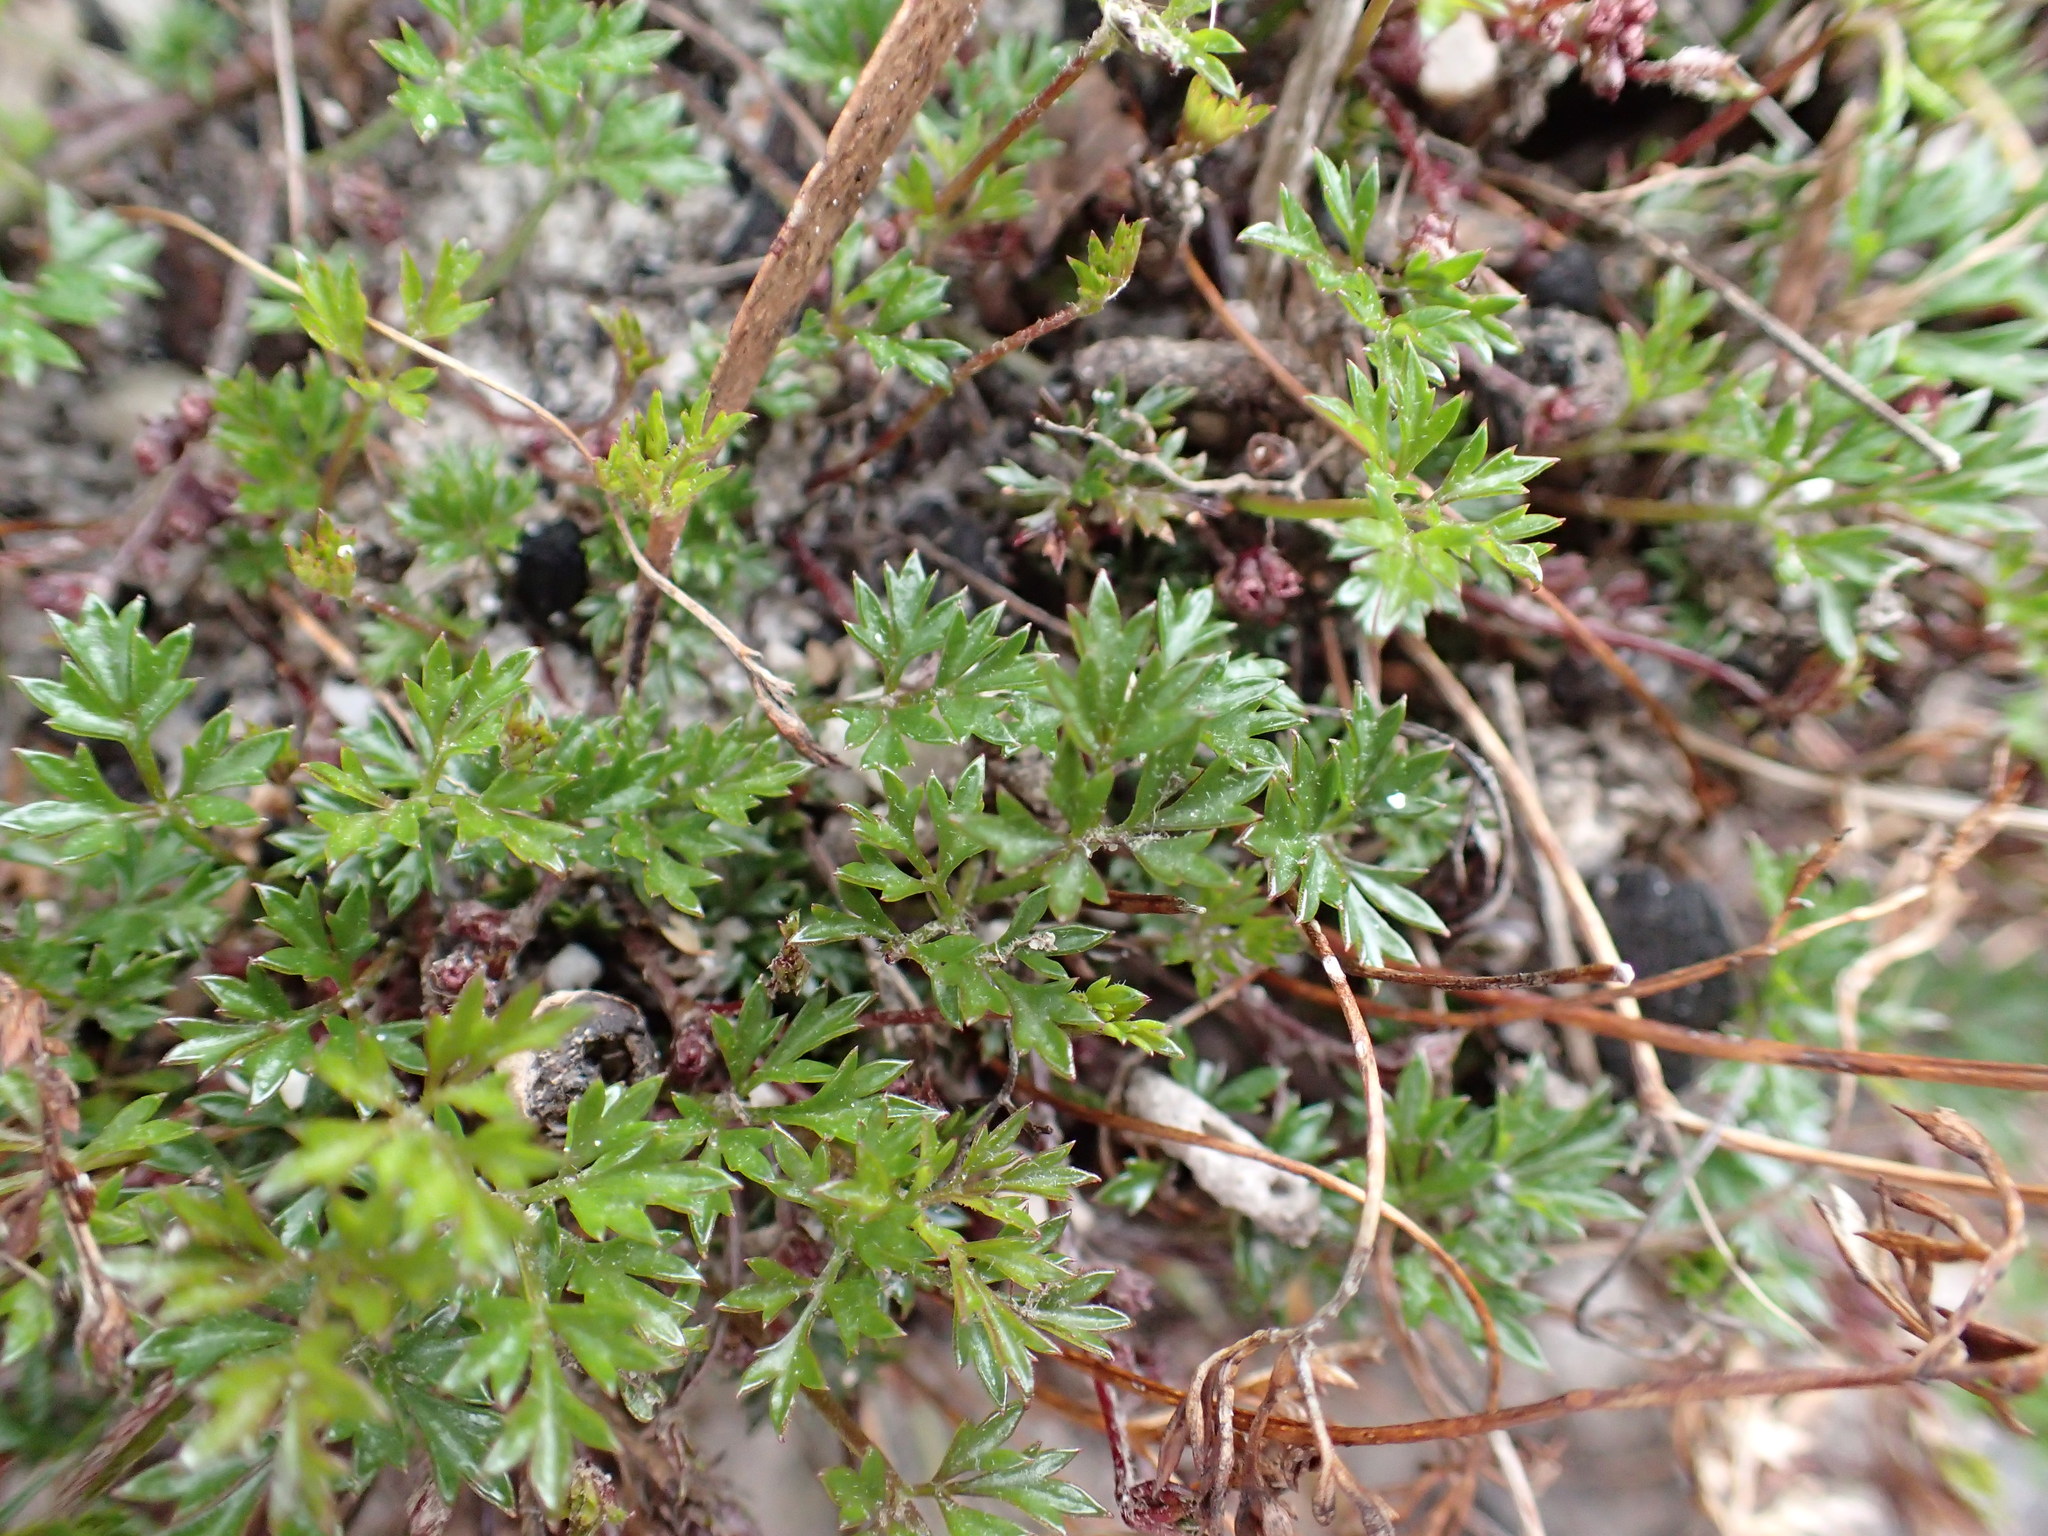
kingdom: Plantae
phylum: Tracheophyta
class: Magnoliopsida
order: Apiales
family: Apiaceae
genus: Xanthosia
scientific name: Xanthosia dissecta
